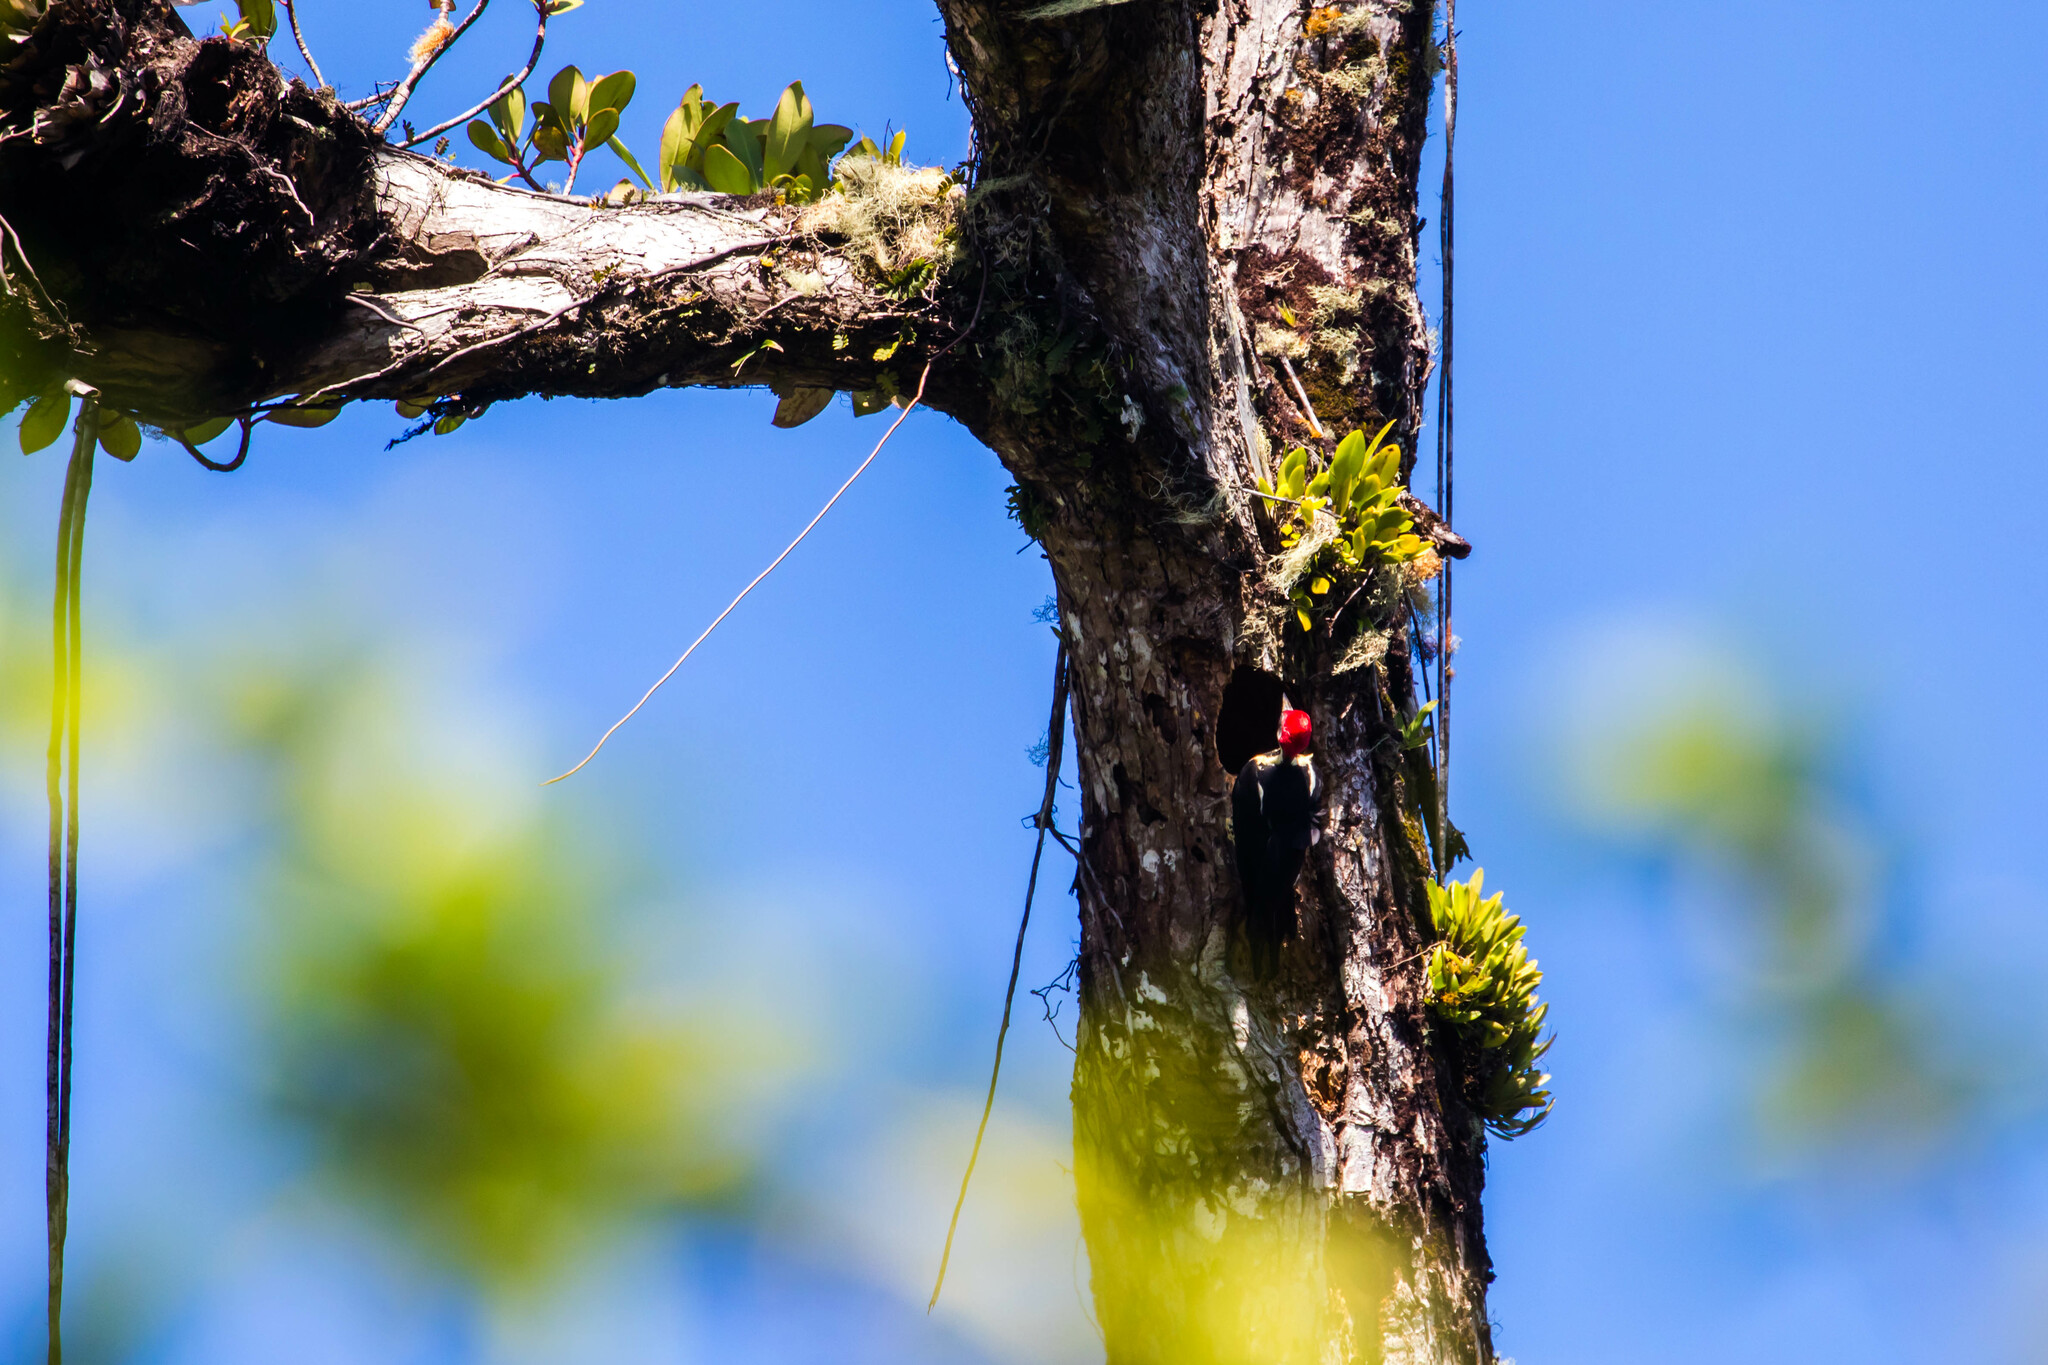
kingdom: Animalia
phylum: Chordata
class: Aves
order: Piciformes
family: Picidae
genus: Dryocopus
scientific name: Dryocopus lineatus
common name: Lineated woodpecker
